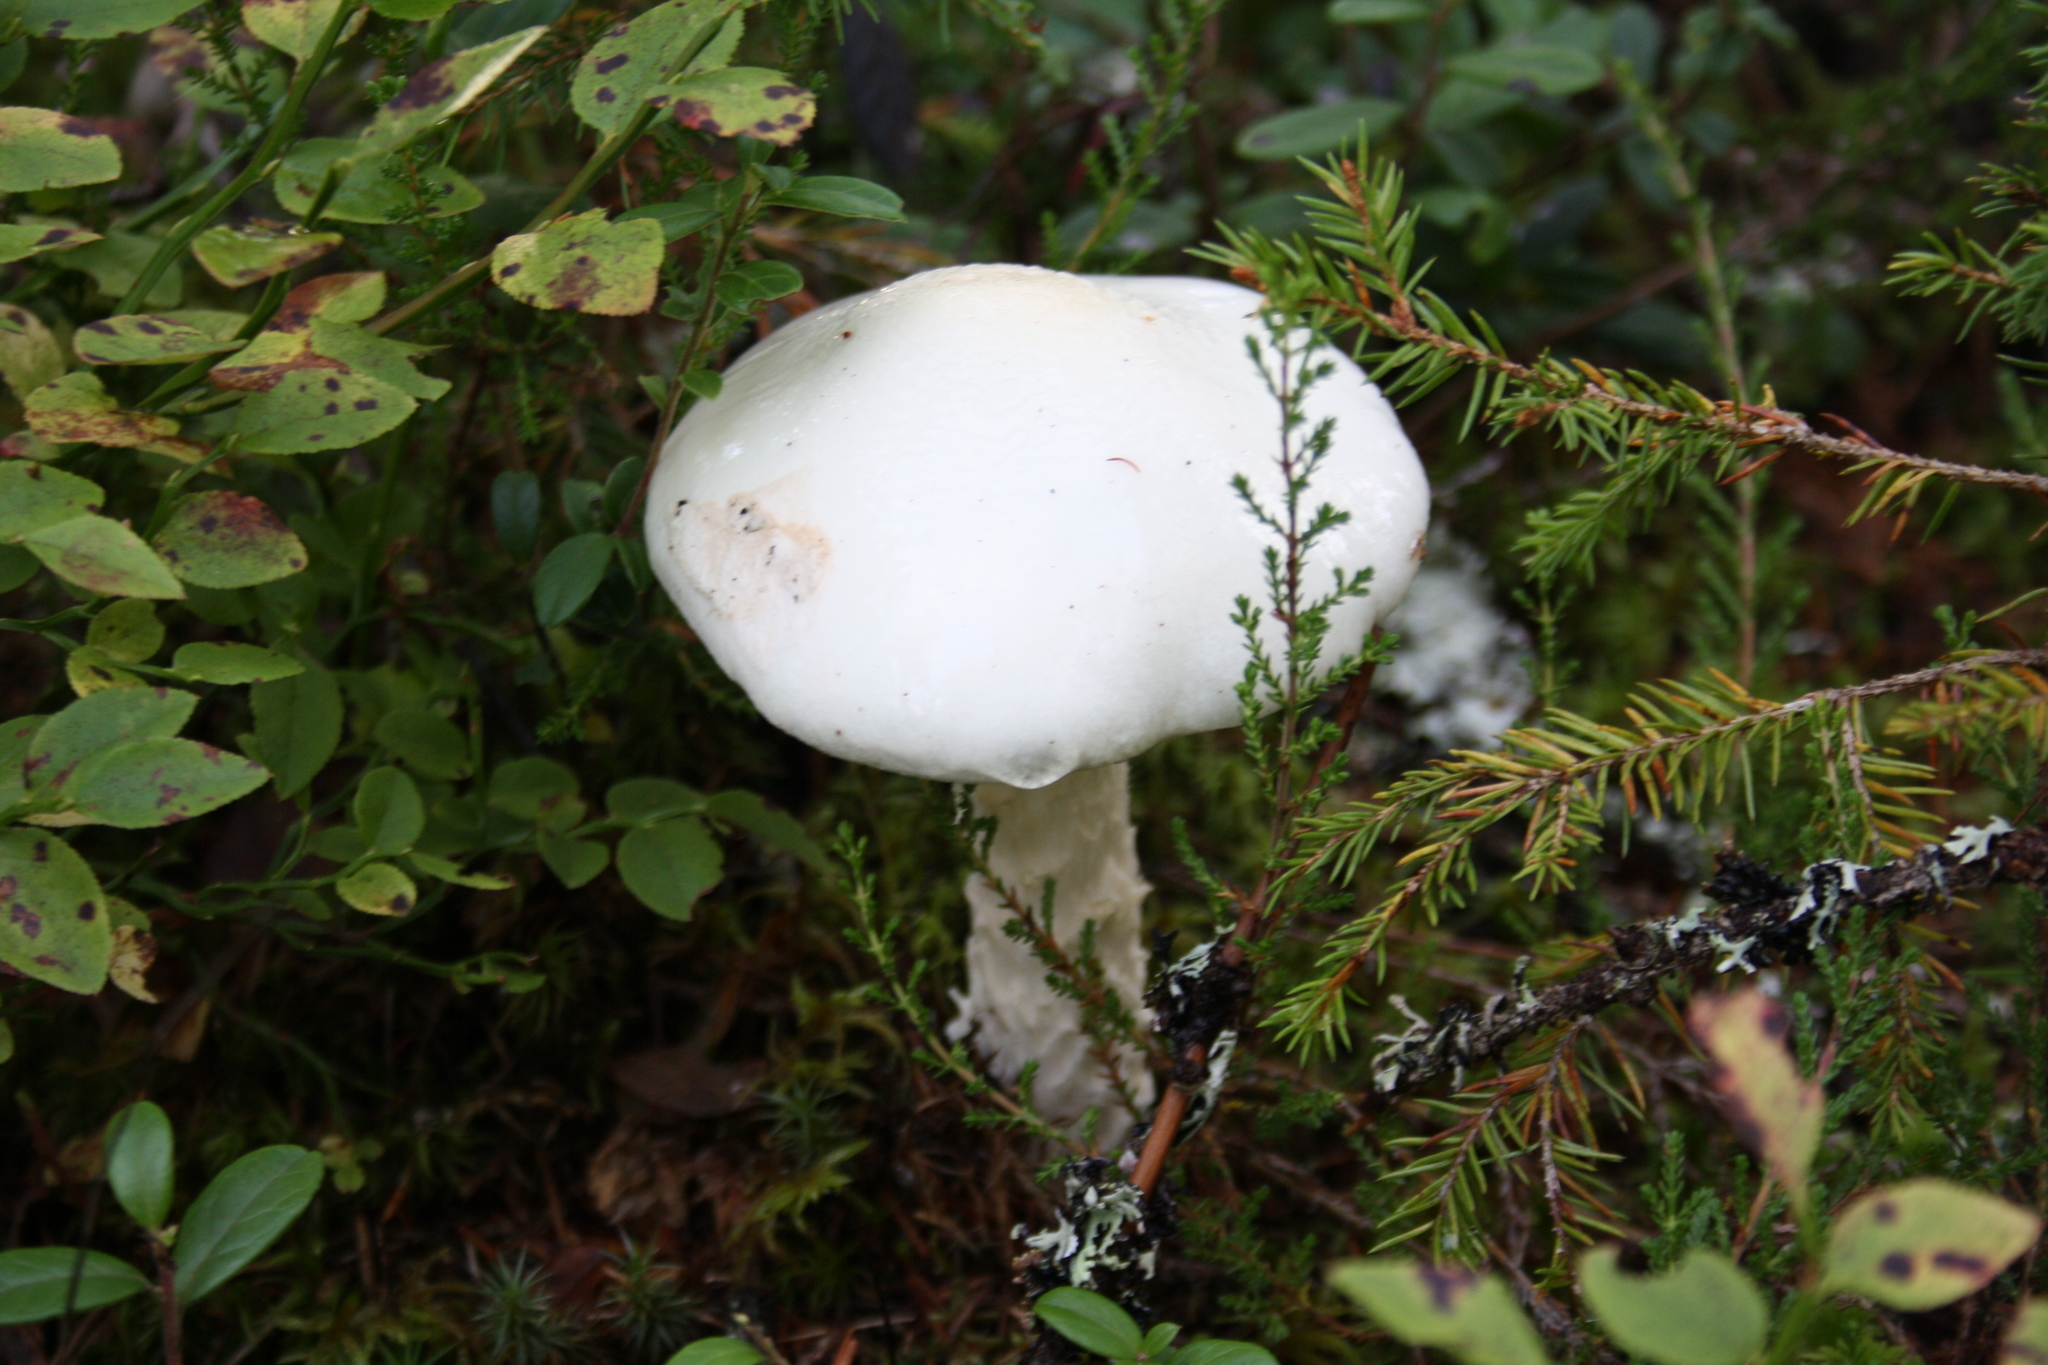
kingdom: Fungi
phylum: Basidiomycota
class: Agaricomycetes
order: Agaricales
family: Amanitaceae
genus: Amanita
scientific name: Amanita virosa
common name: Destroying angel
